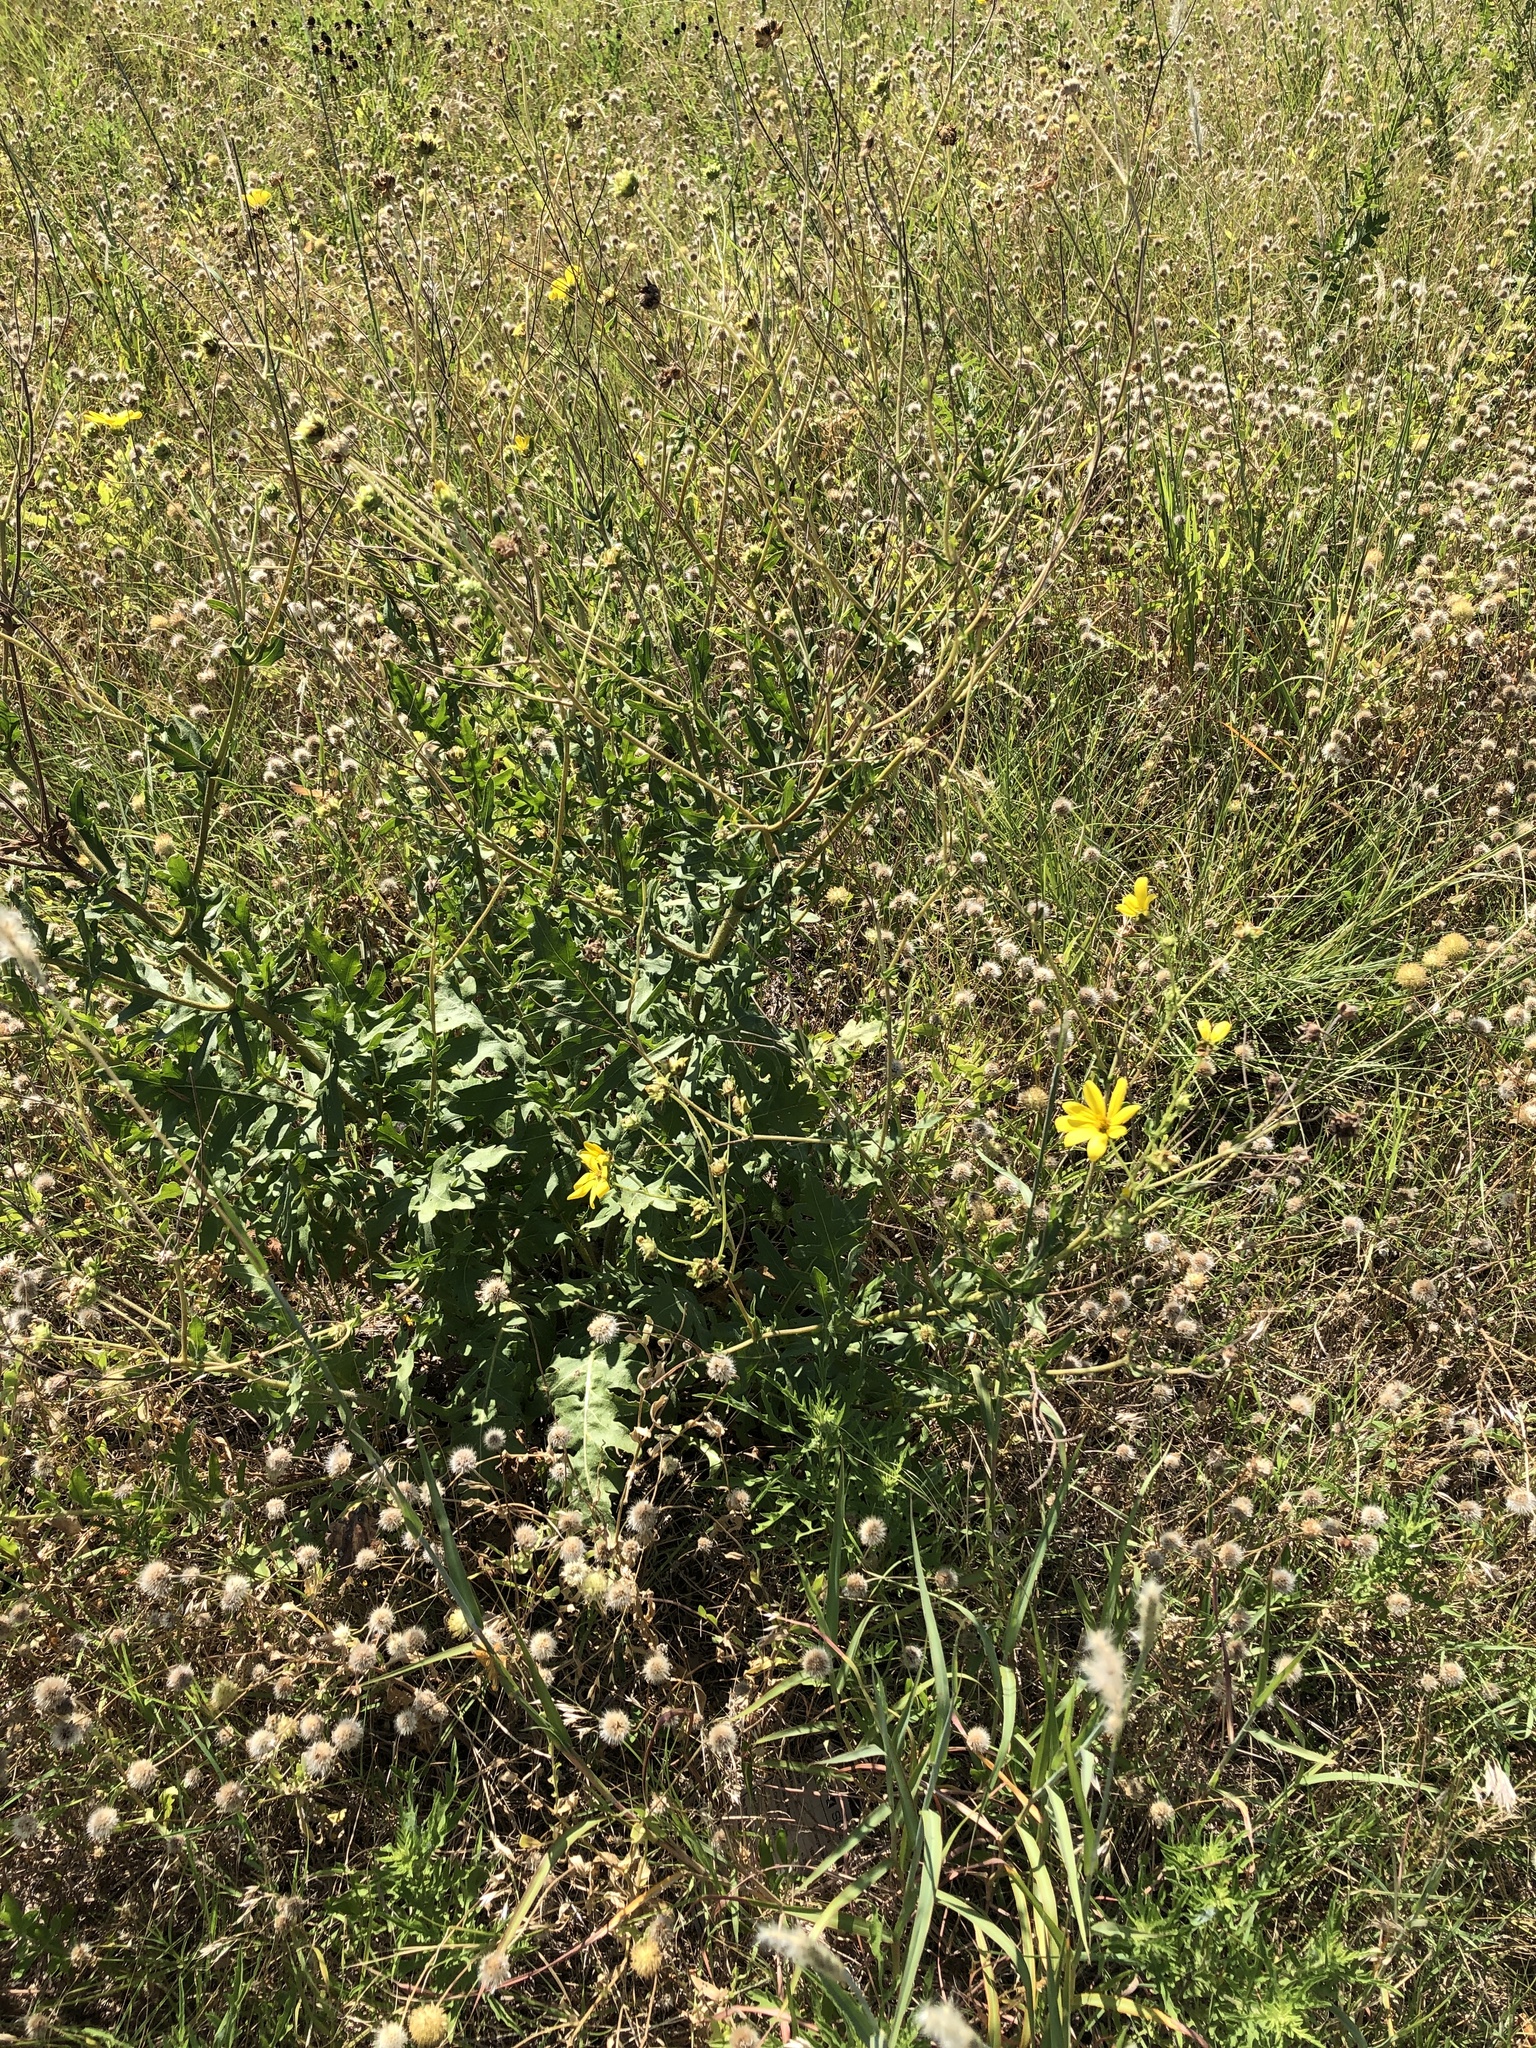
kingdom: Plantae
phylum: Tracheophyta
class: Magnoliopsida
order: Asterales
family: Asteraceae
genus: Engelmannia
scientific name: Engelmannia peristenia
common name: Engelmann's daisy
